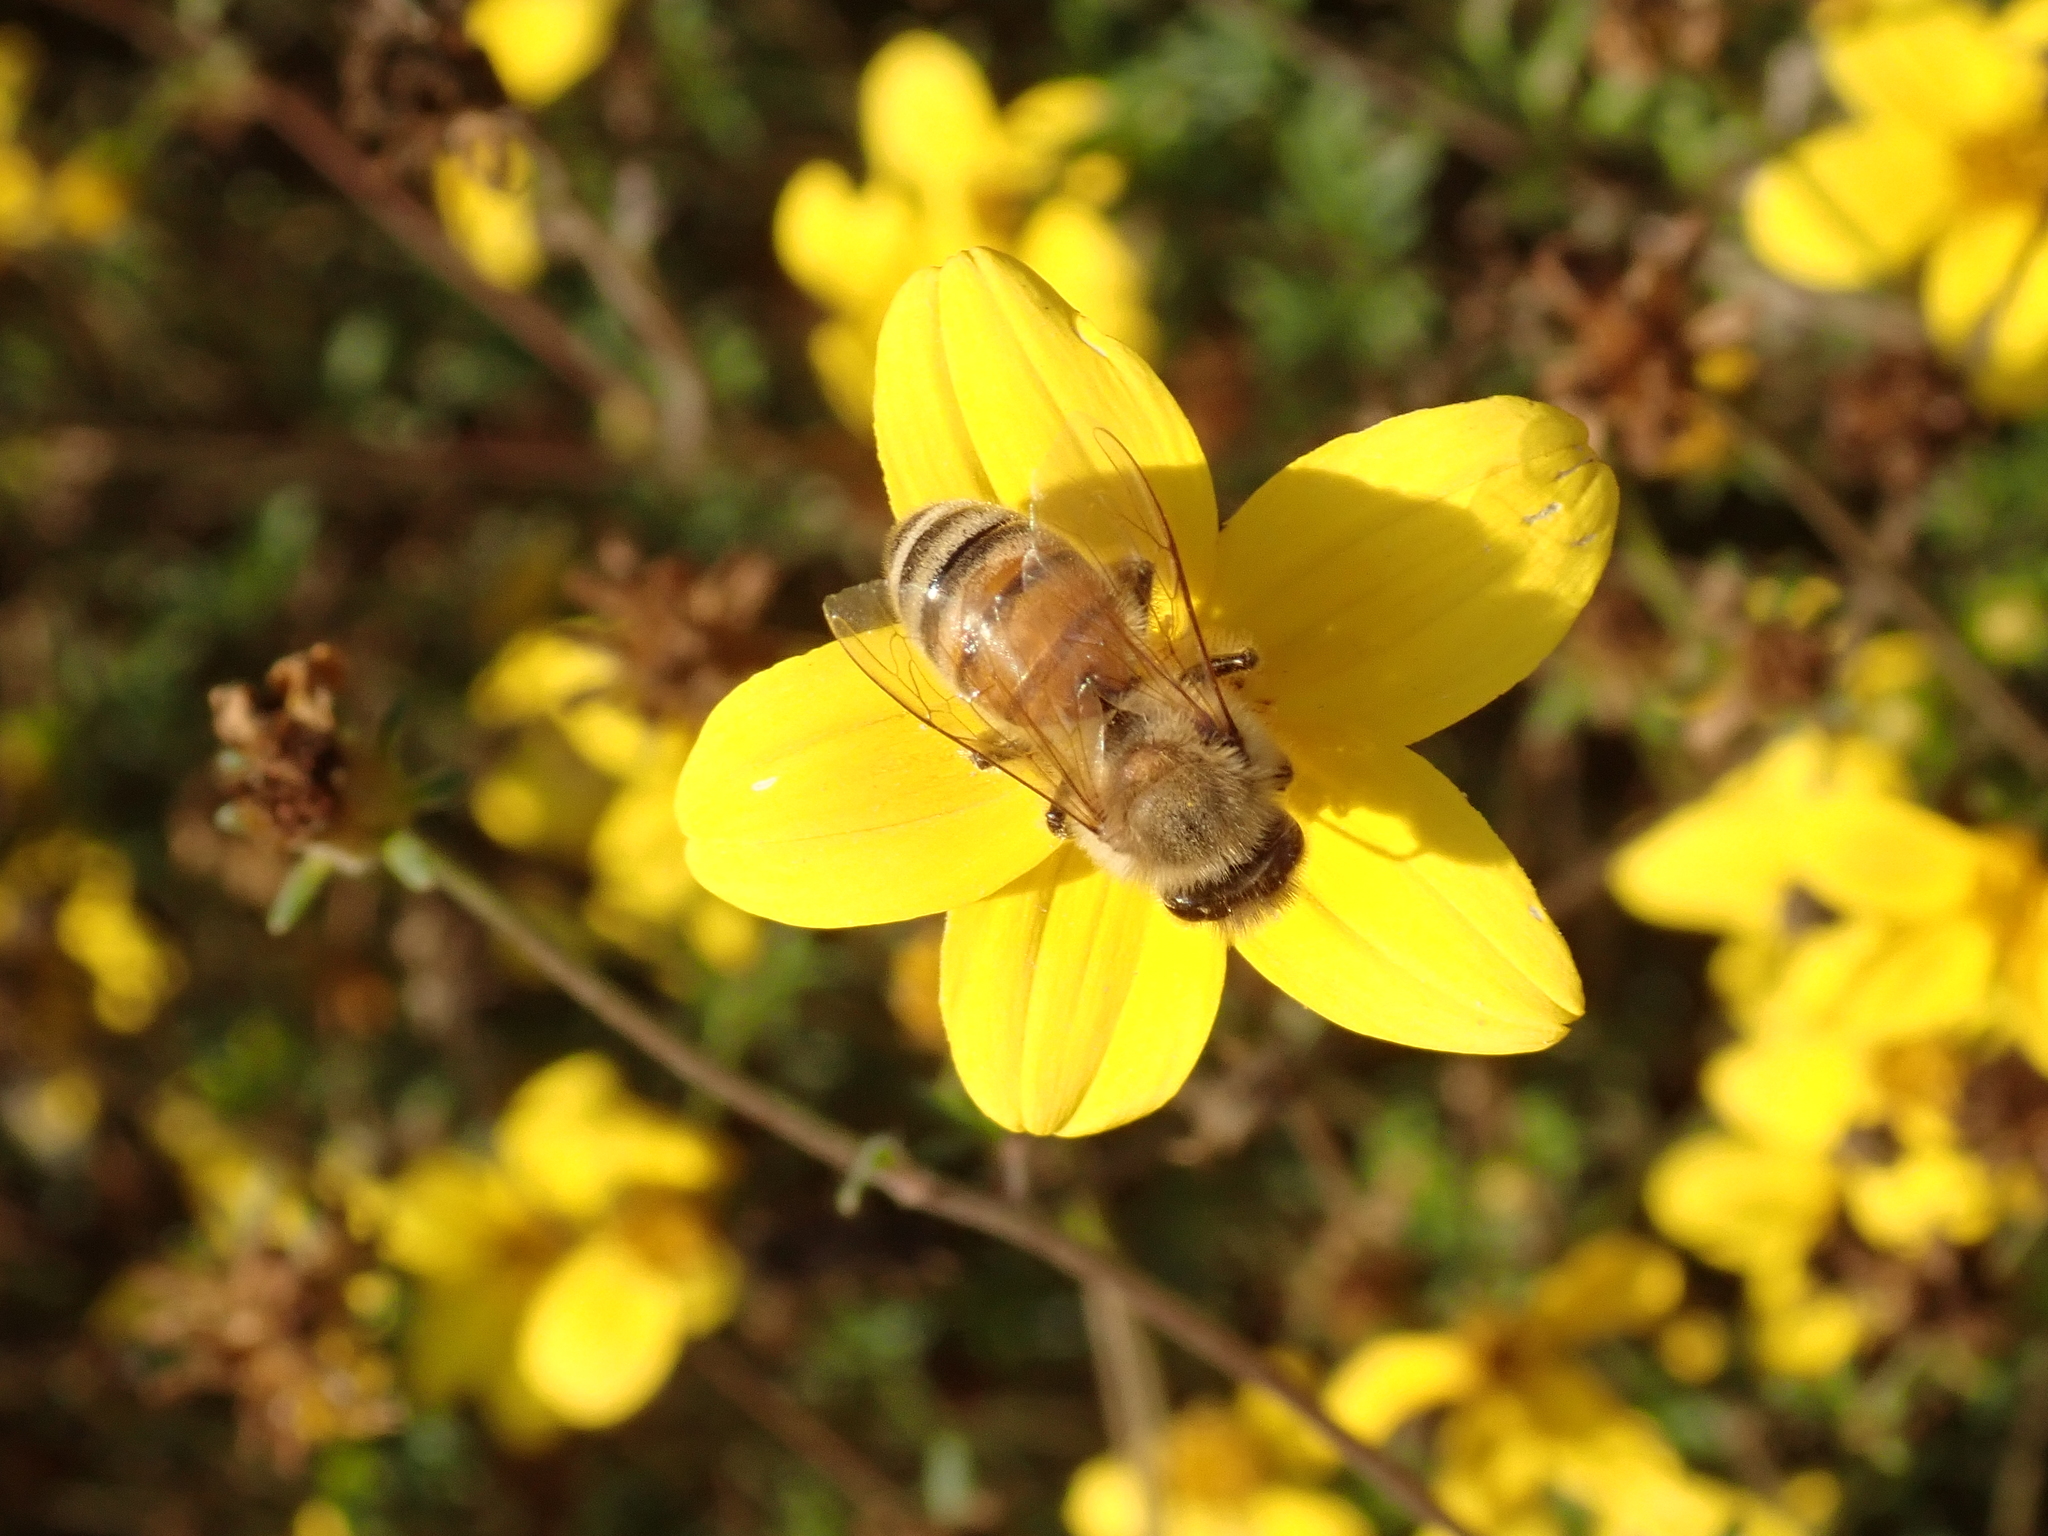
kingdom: Animalia
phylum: Arthropoda
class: Insecta
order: Hymenoptera
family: Apidae
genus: Apis
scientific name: Apis mellifera
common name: Honey bee
